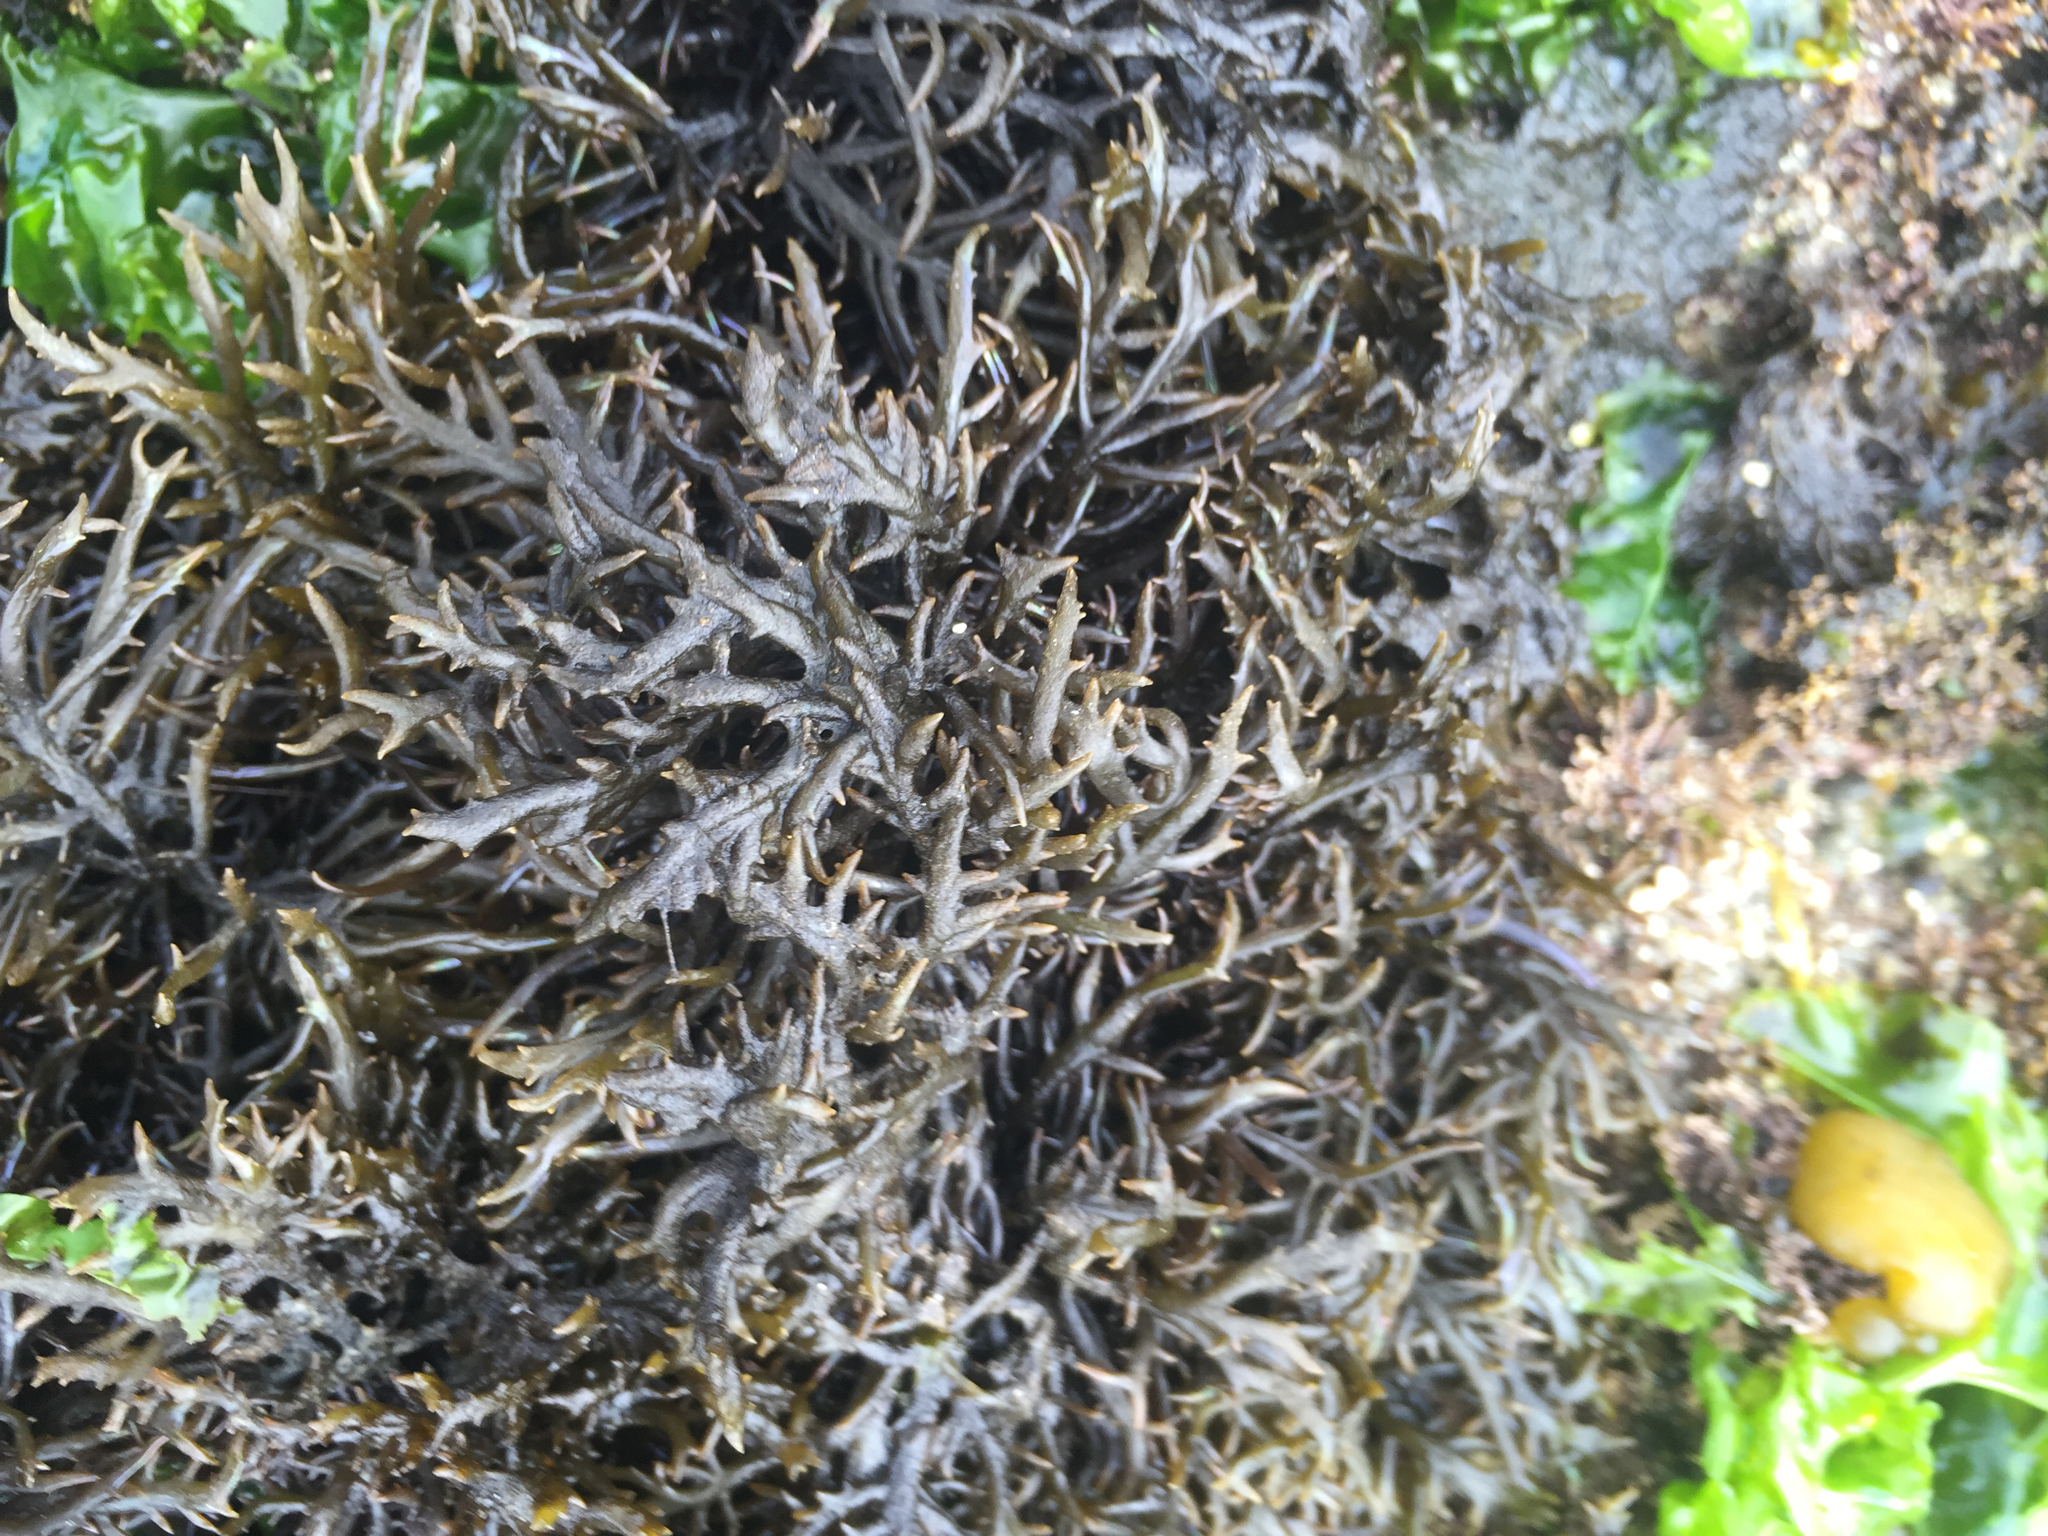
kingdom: Plantae
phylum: Rhodophyta
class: Florideophyceae
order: Gigartinales
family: Gigartinaceae
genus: Chondracanthus
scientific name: Chondracanthus canaliculatus
